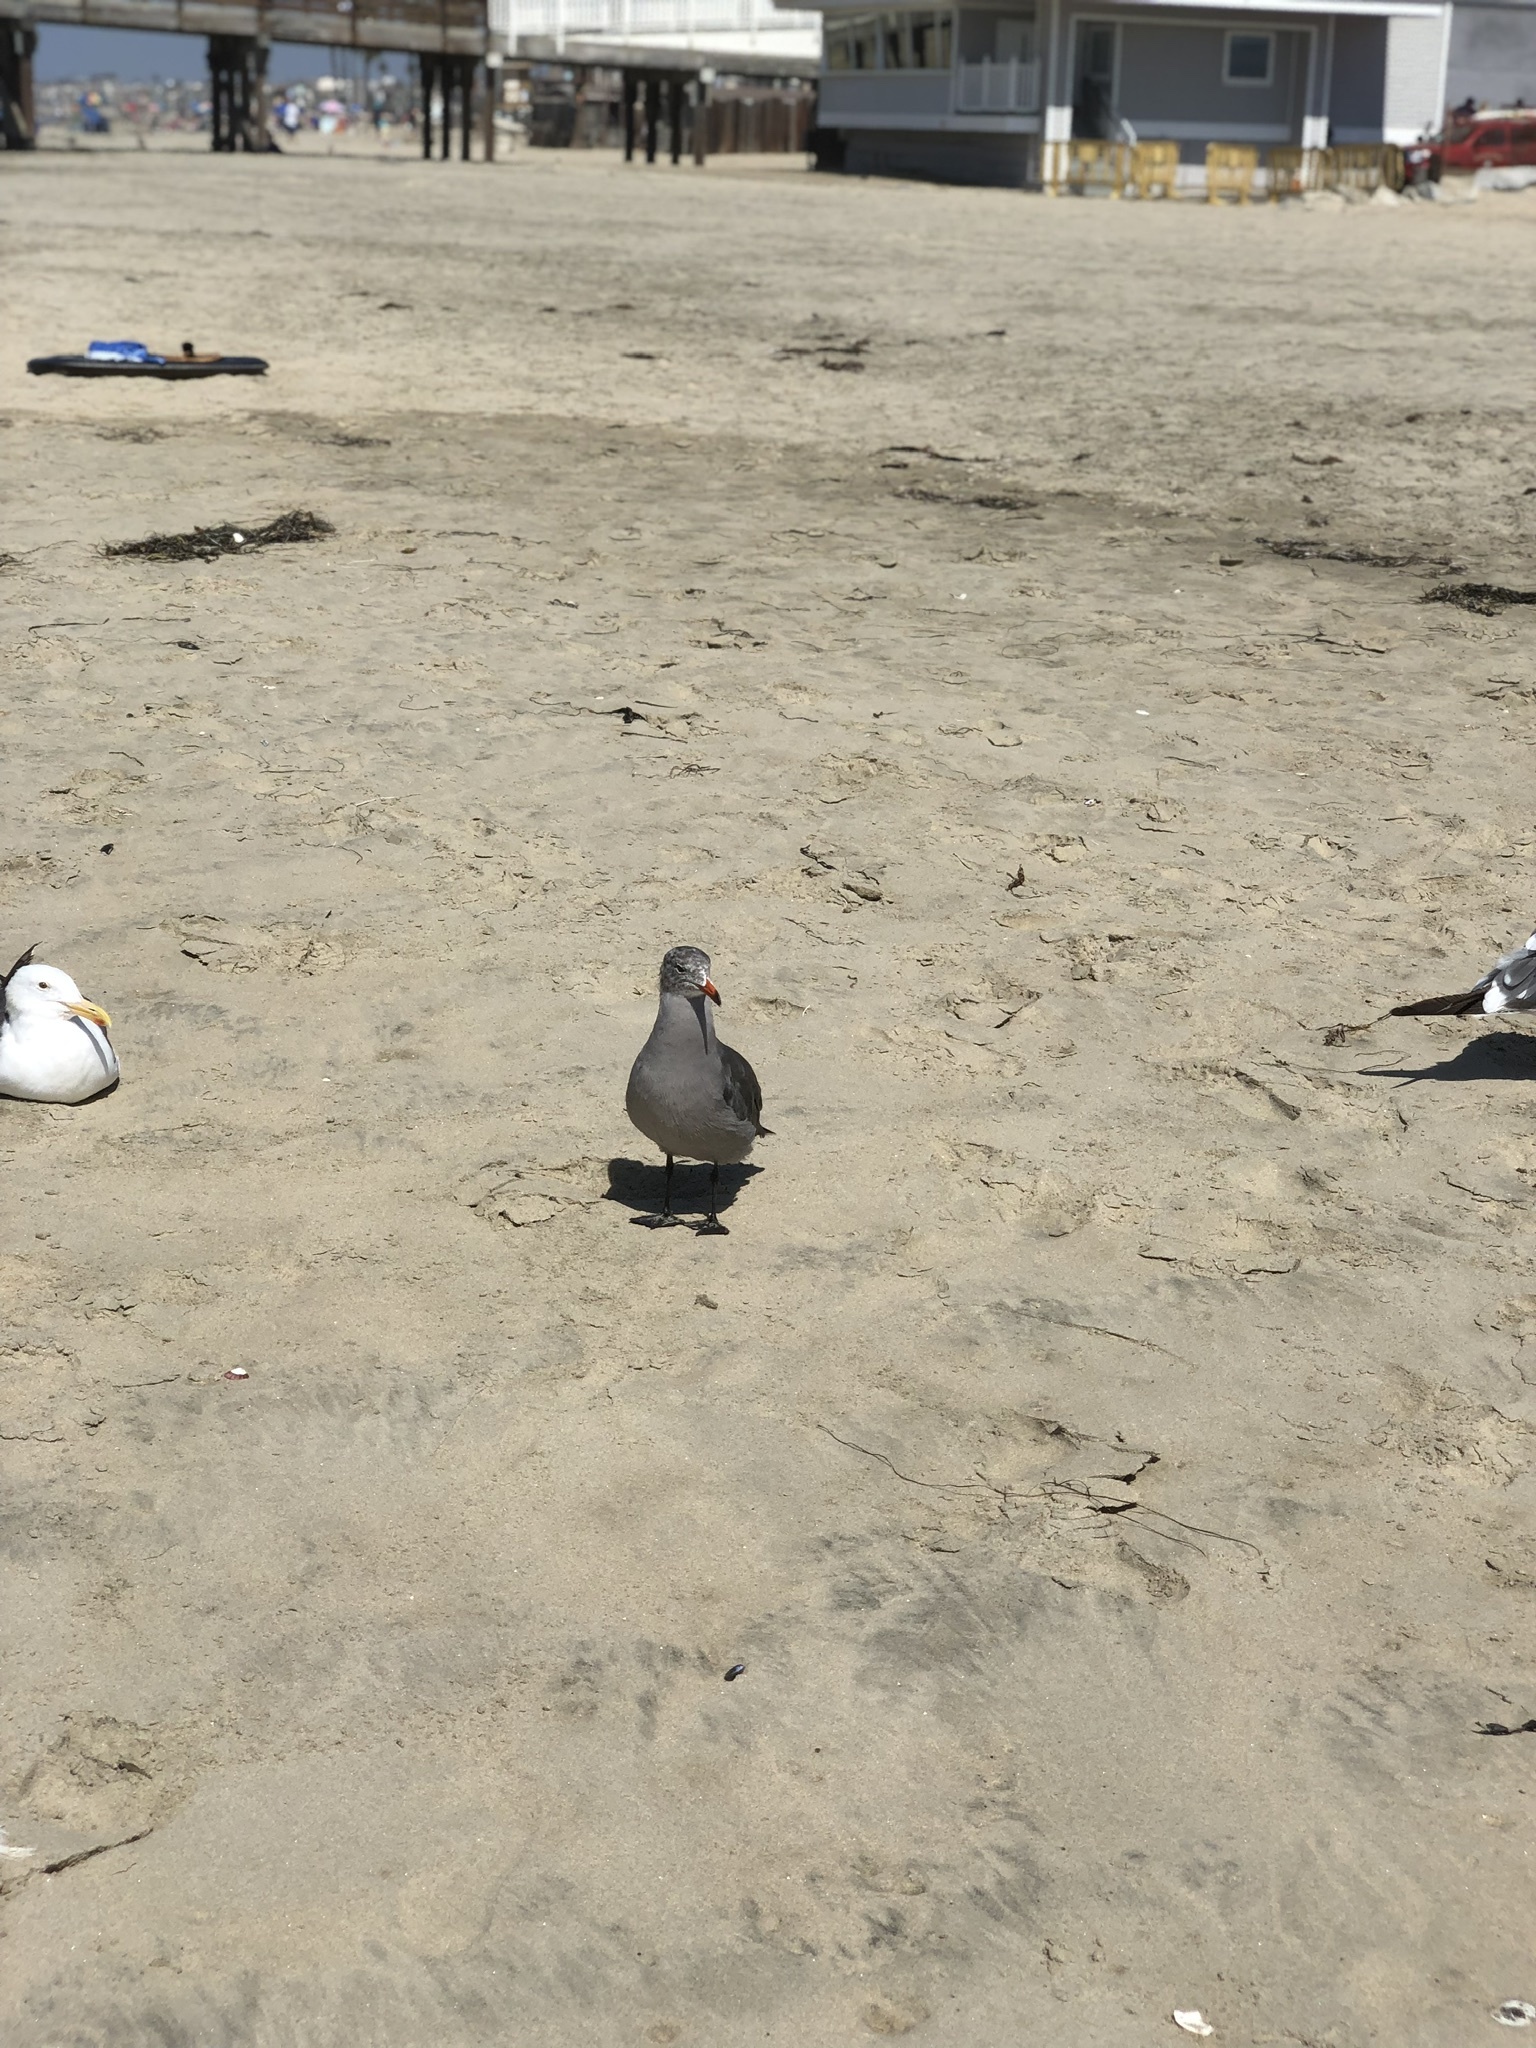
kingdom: Animalia
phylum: Chordata
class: Aves
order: Charadriiformes
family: Laridae
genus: Larus
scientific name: Larus heermanni
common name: Heermann's gull
